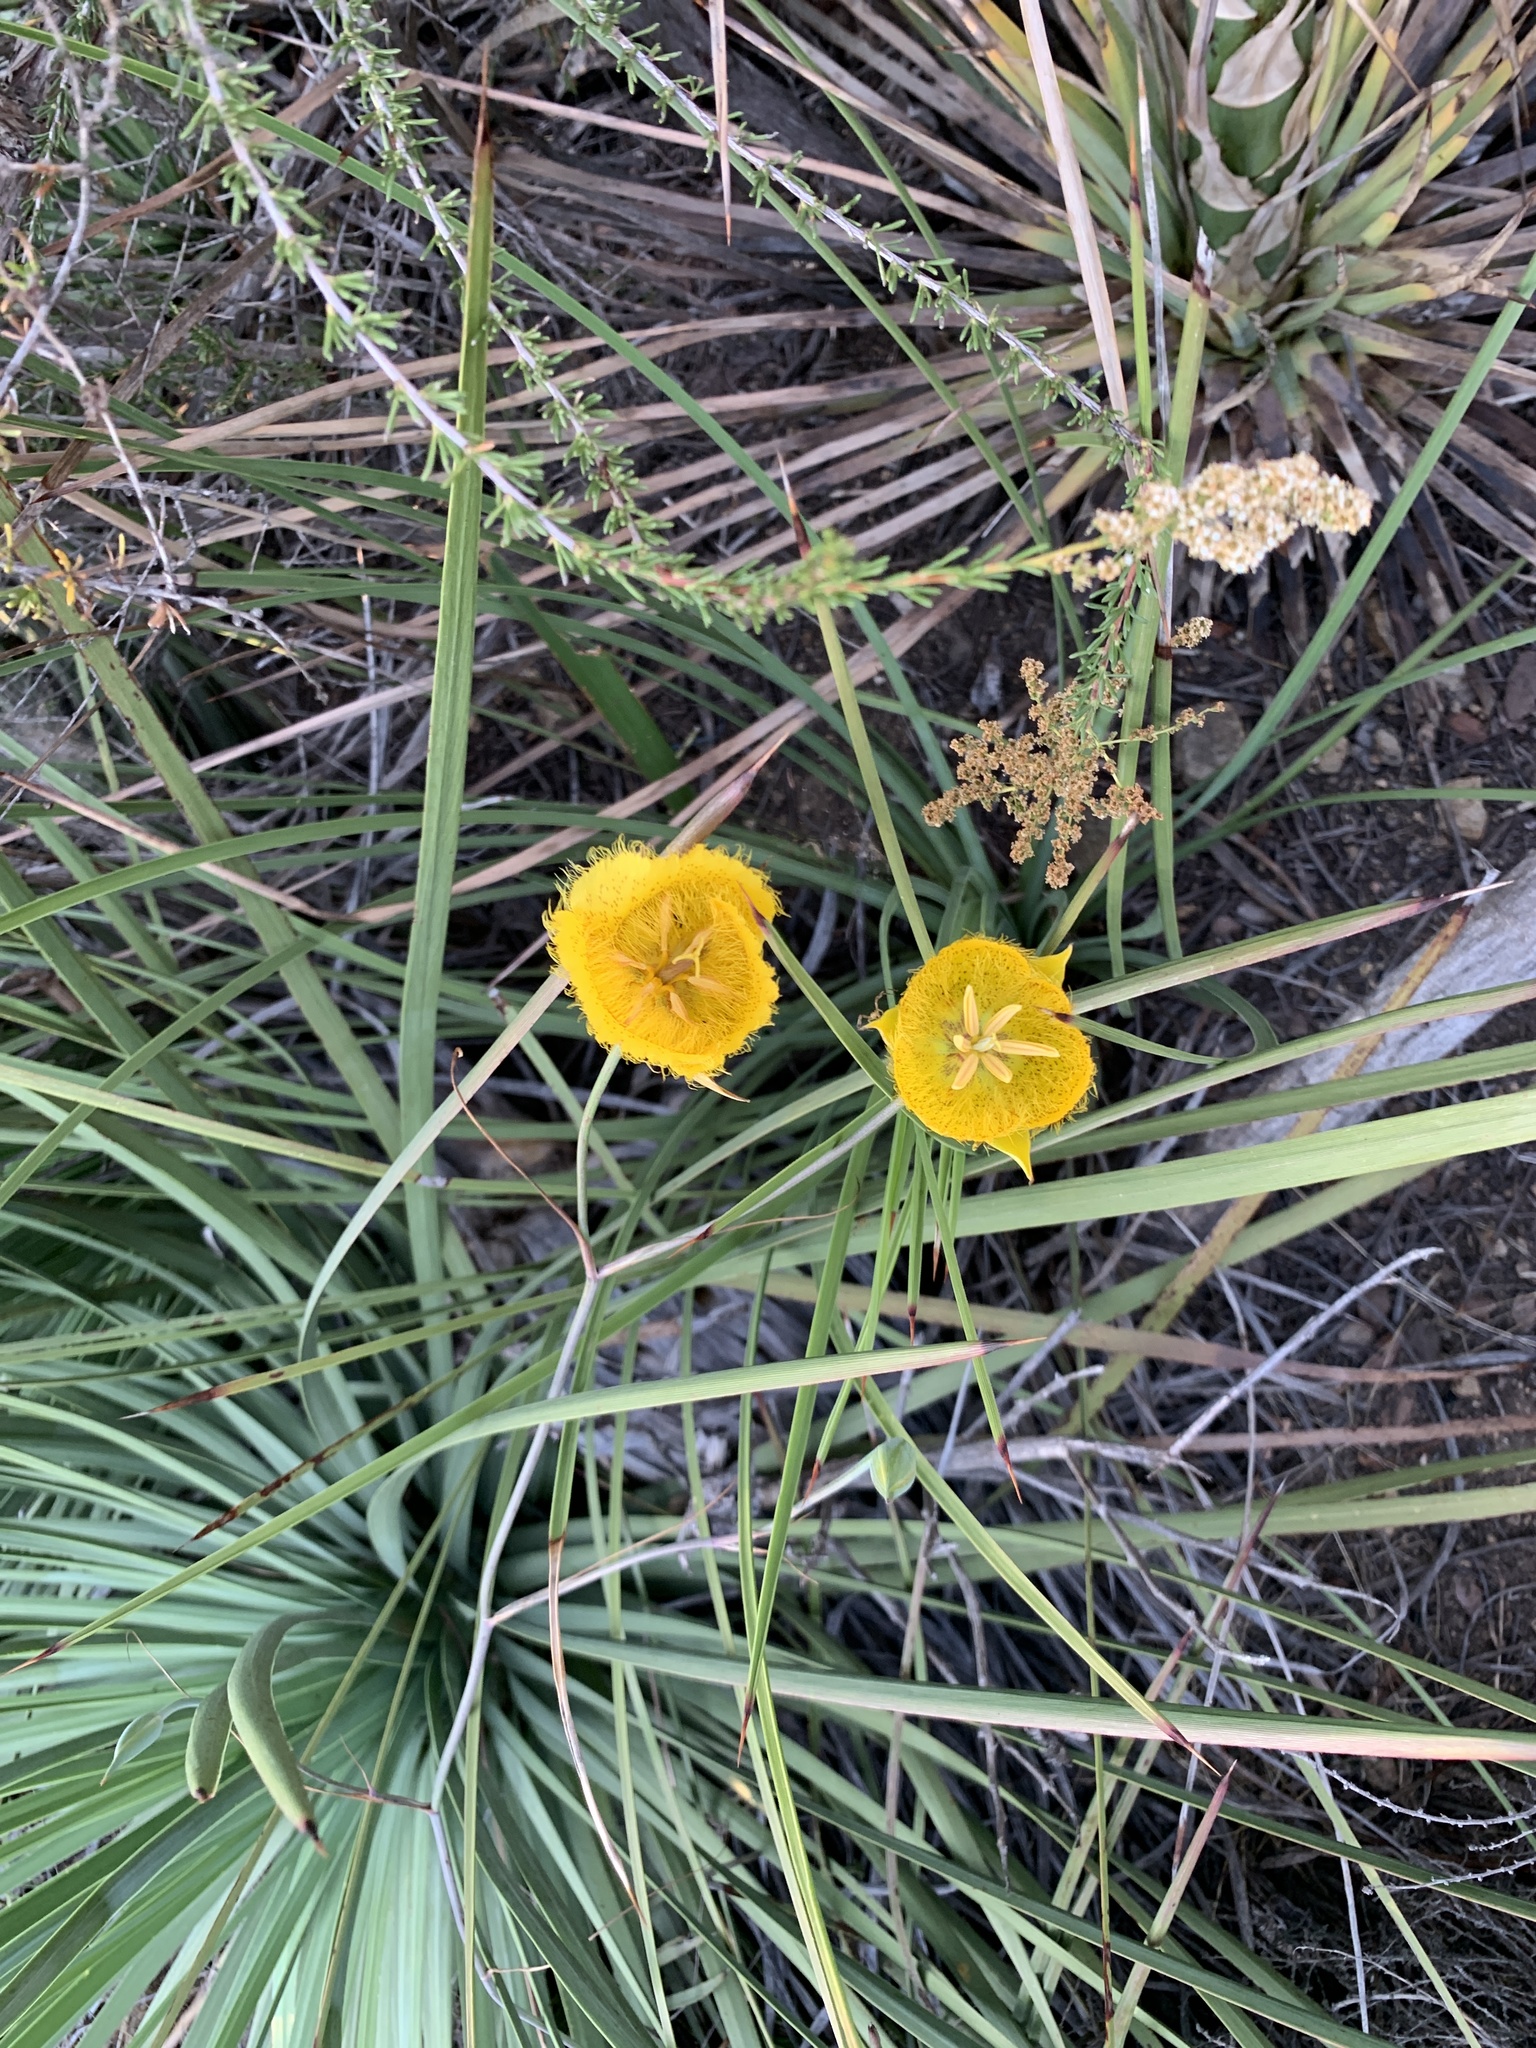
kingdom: Plantae
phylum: Tracheophyta
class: Liliopsida
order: Liliales
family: Liliaceae
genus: Calochortus
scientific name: Calochortus weedii
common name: Weed's mariposa-lily
